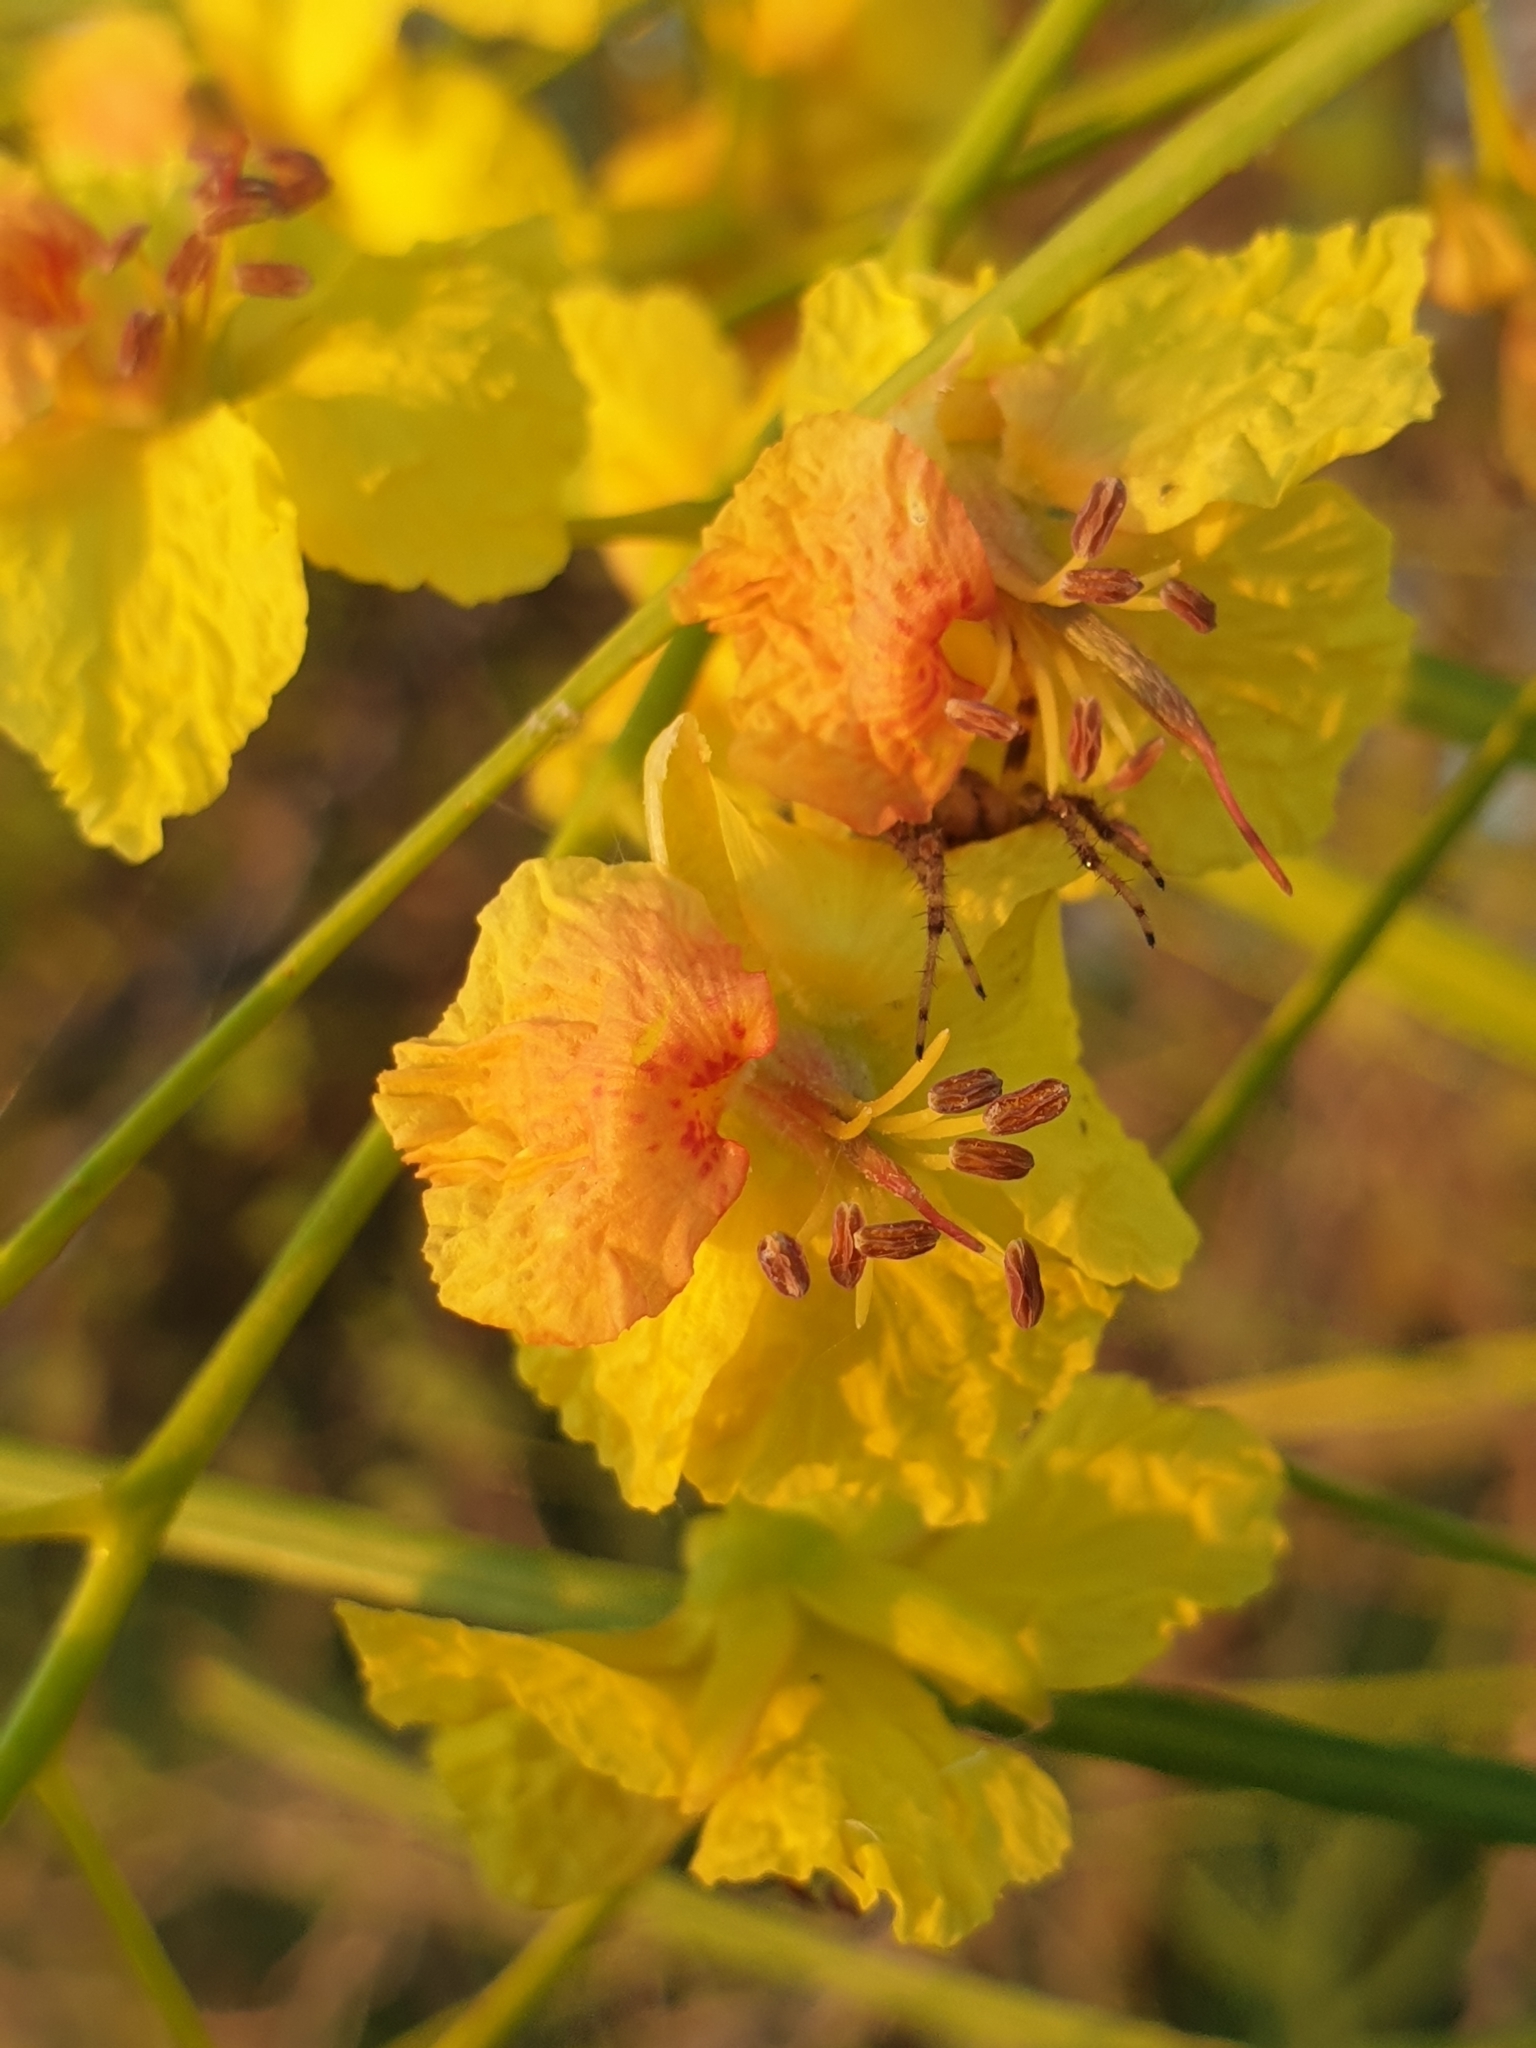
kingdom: Plantae
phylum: Tracheophyta
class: Magnoliopsida
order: Fabales
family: Fabaceae
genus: Parkinsonia
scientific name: Parkinsonia aculeata
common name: Jerusalem thorn
